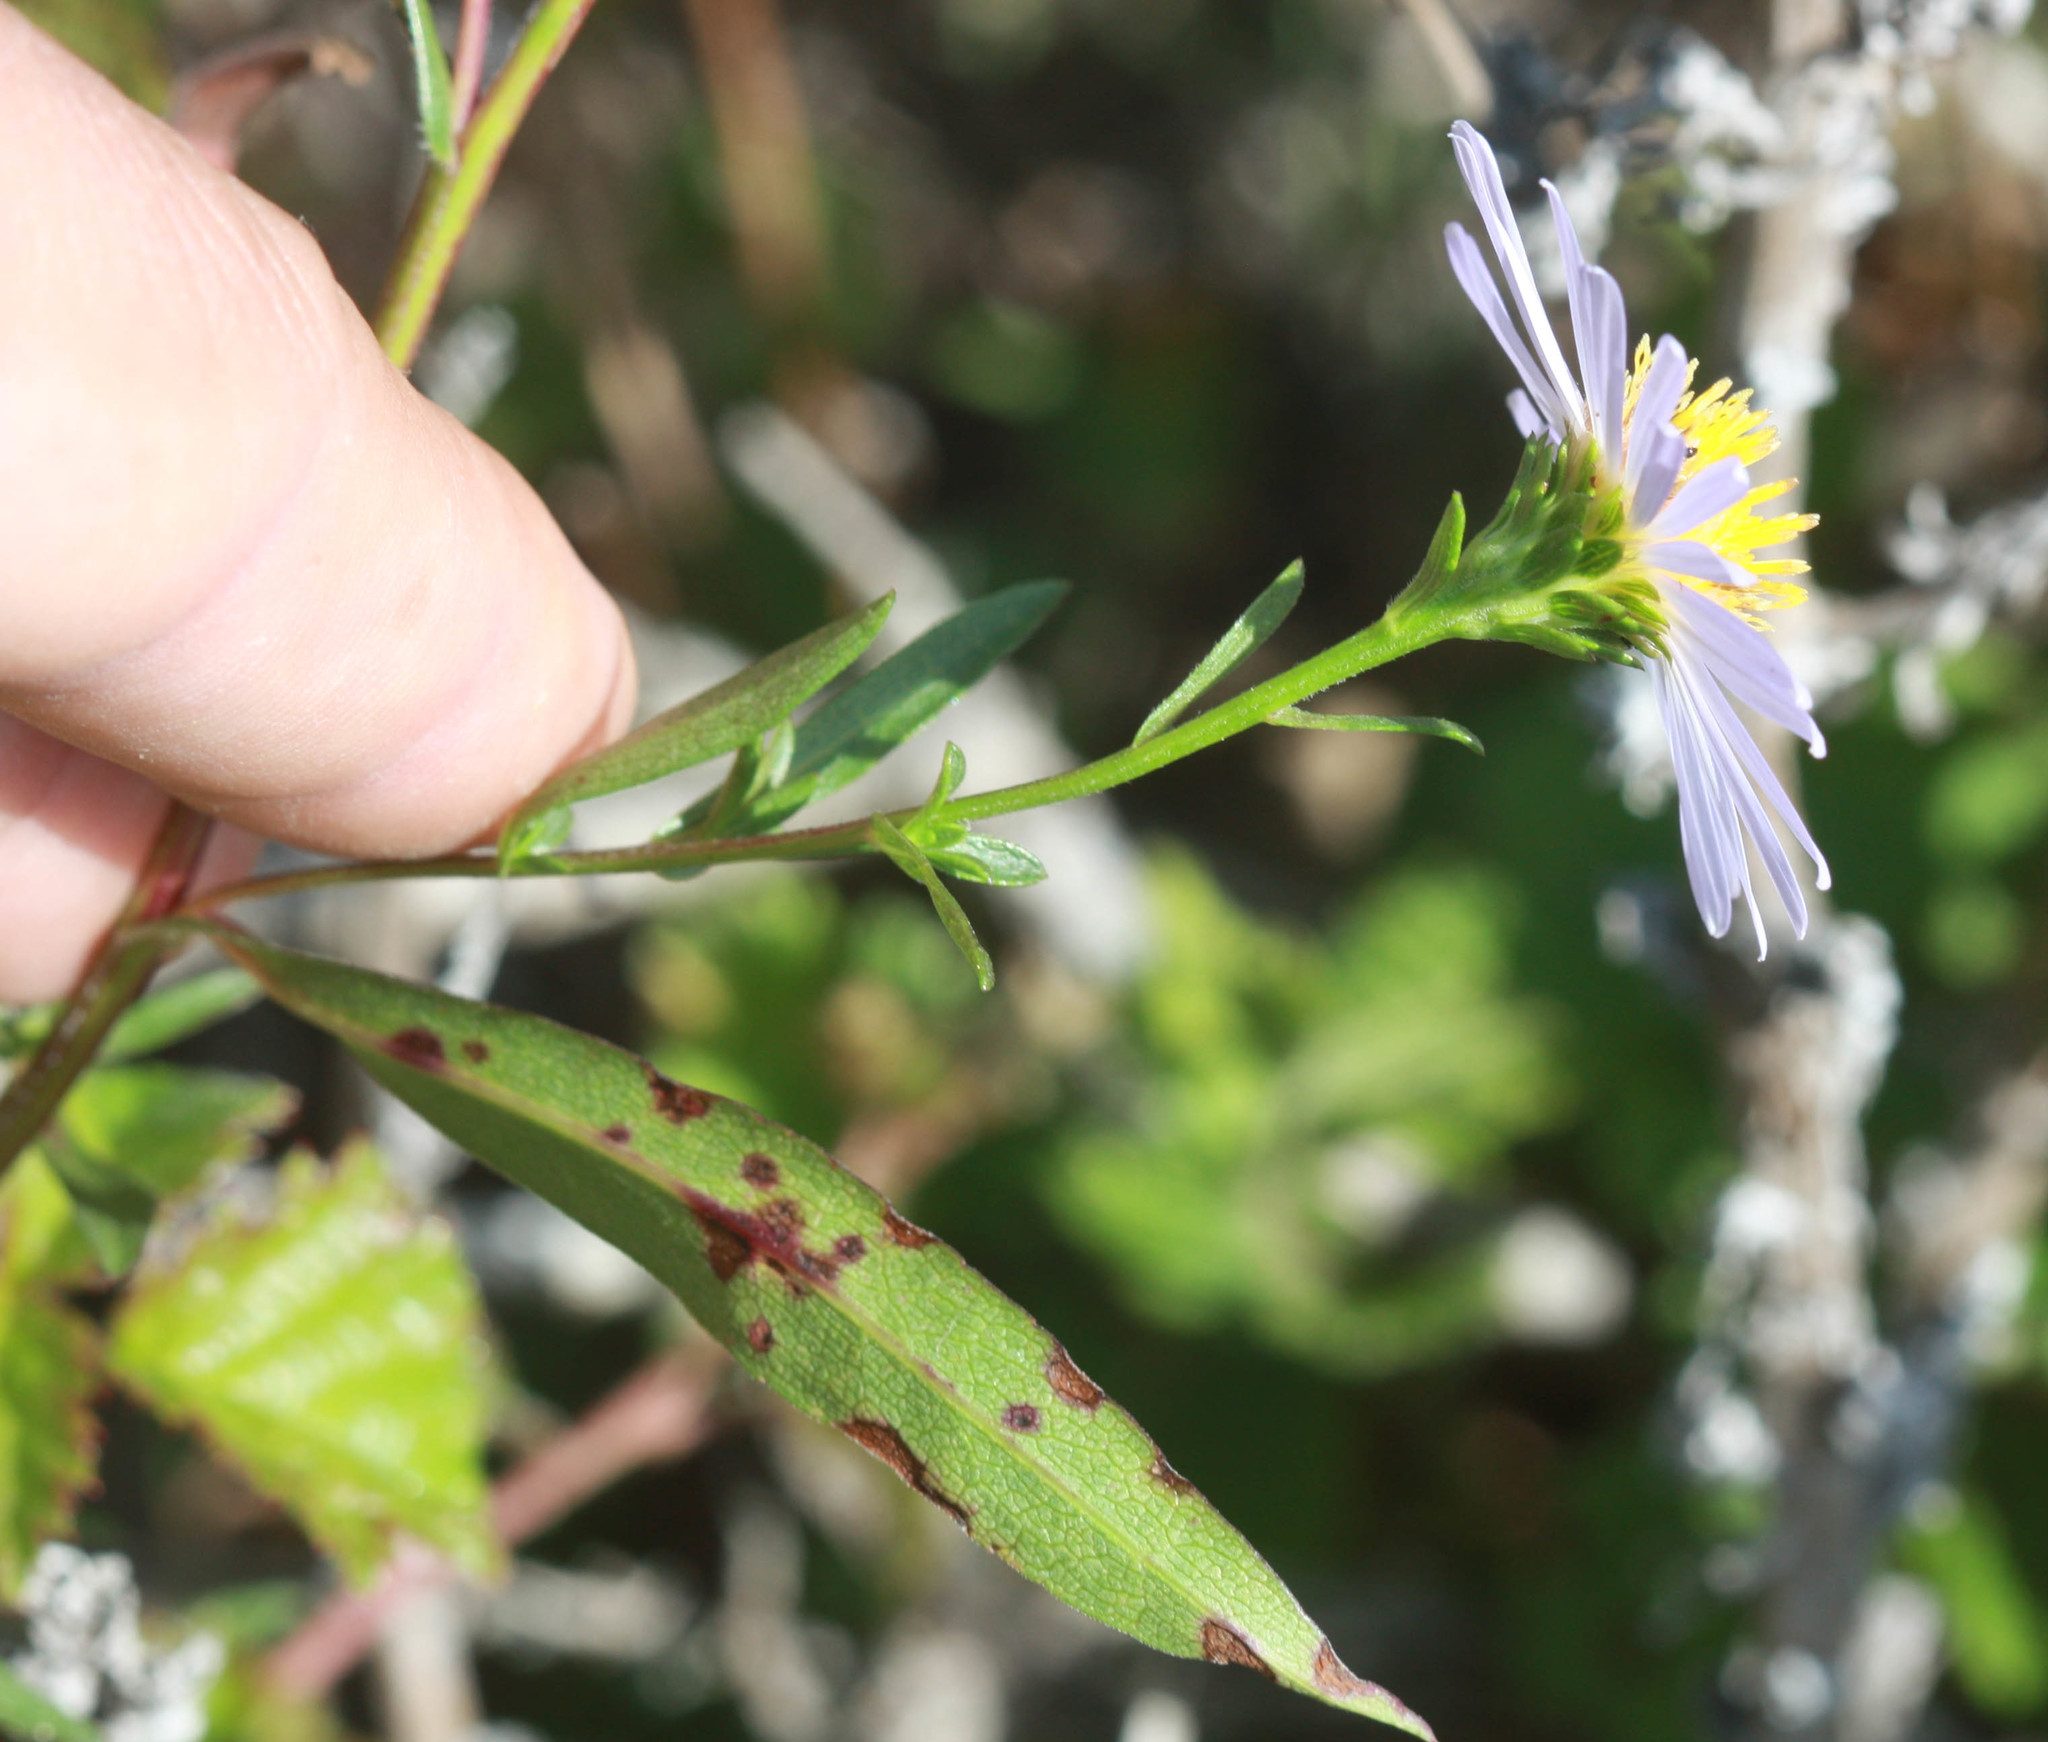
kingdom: Plantae
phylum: Tracheophyta
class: Magnoliopsida
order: Asterales
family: Asteraceae
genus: Symphyotrichum
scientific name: Symphyotrichum chilense
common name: Pacific aster
